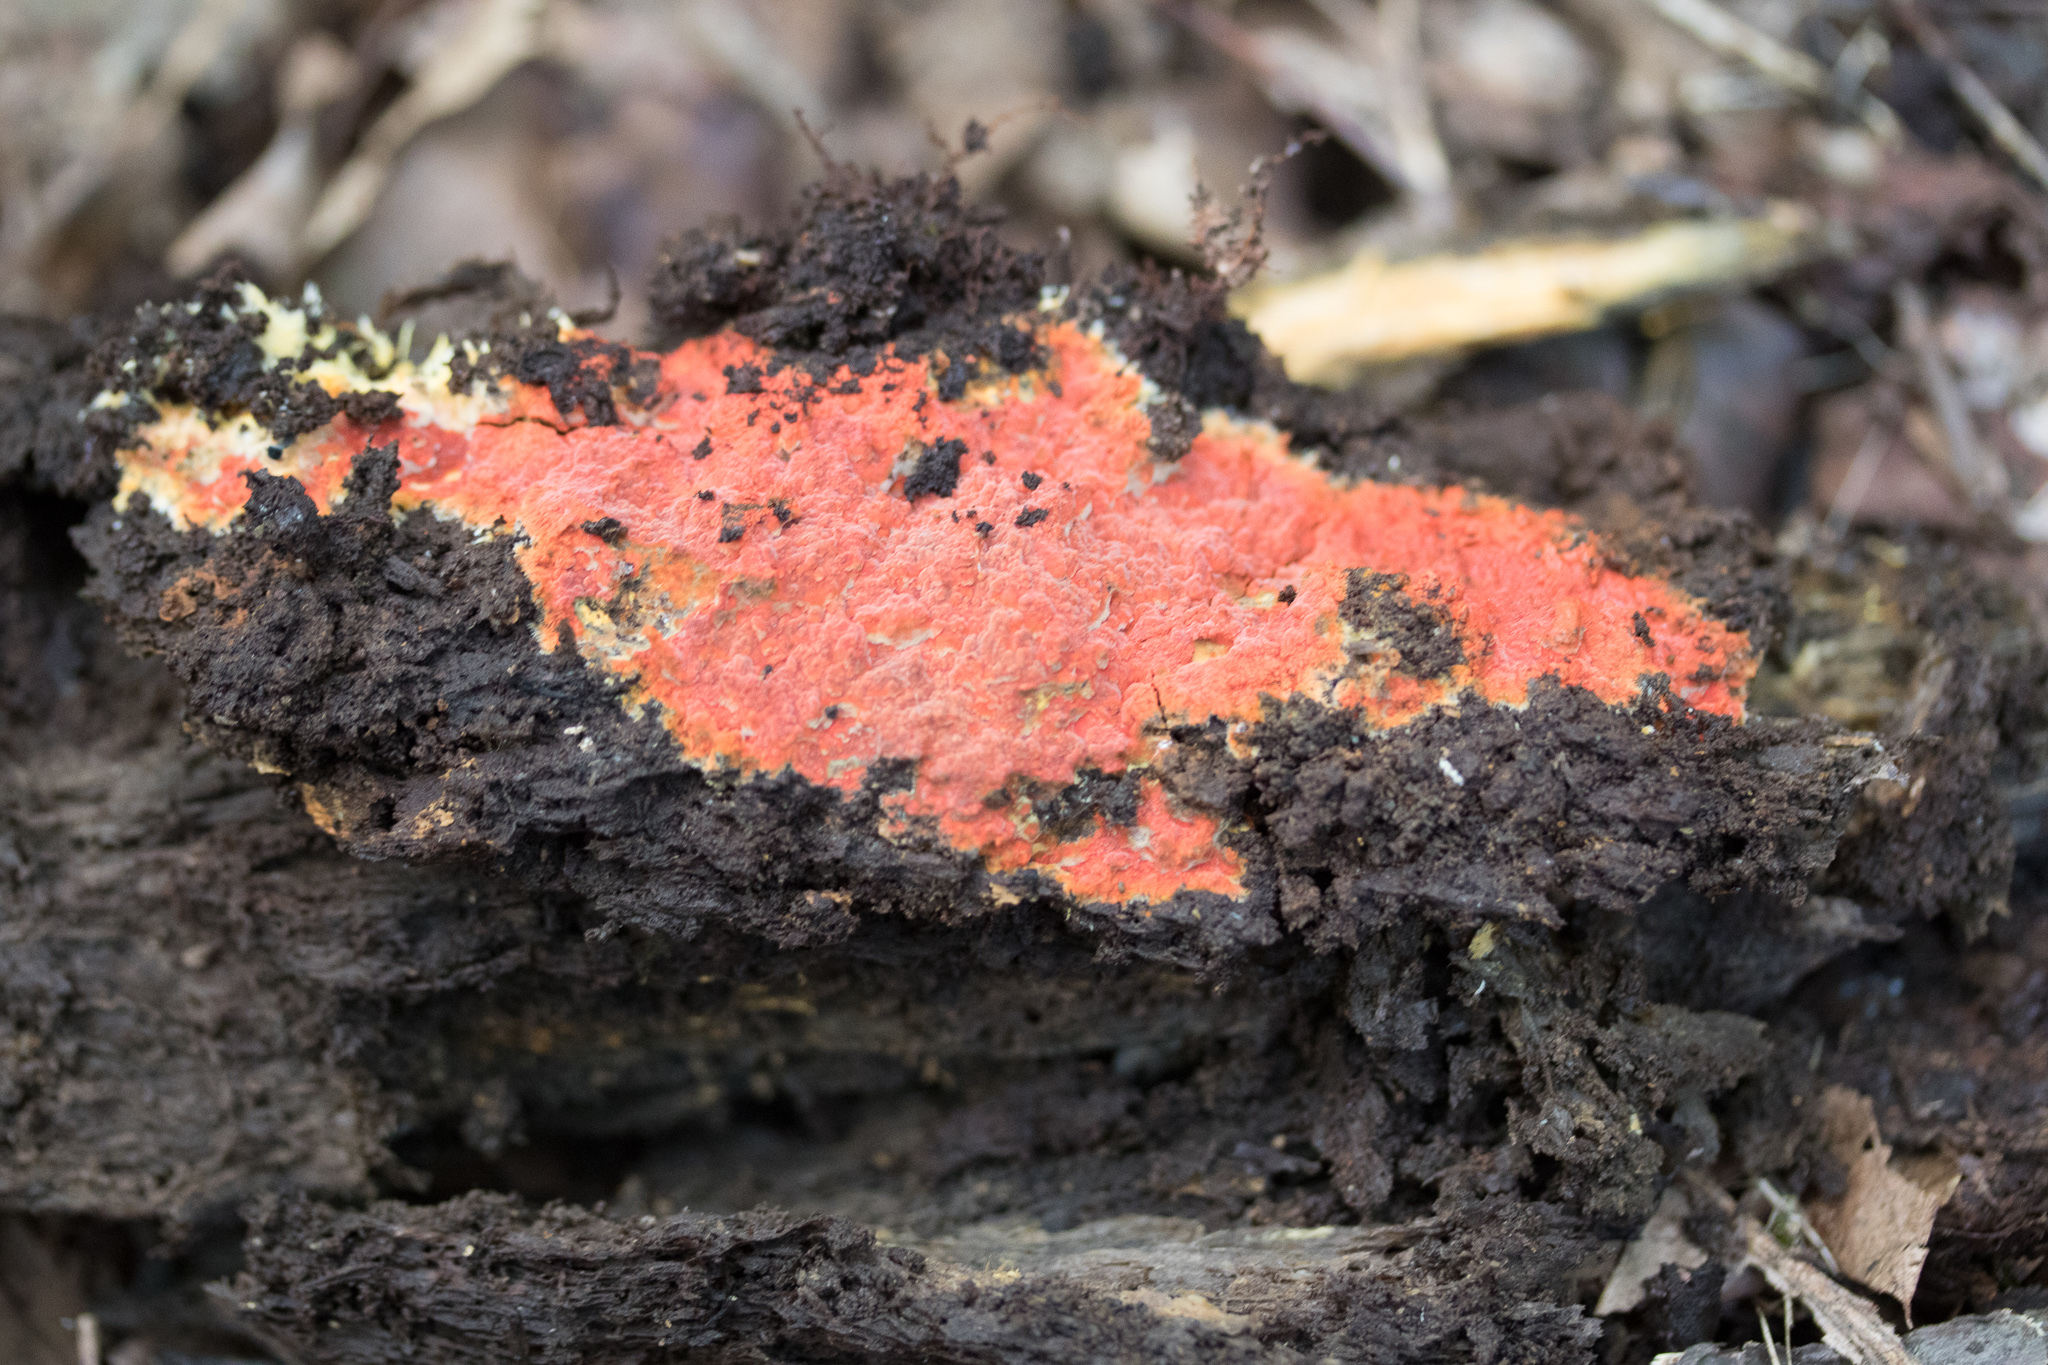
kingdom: Fungi
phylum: Basidiomycota
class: Agaricomycetes
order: Polyporales
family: Meruliaceae
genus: Phlebia
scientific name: Phlebia coccineofulva
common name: Scarlet waxcrust
